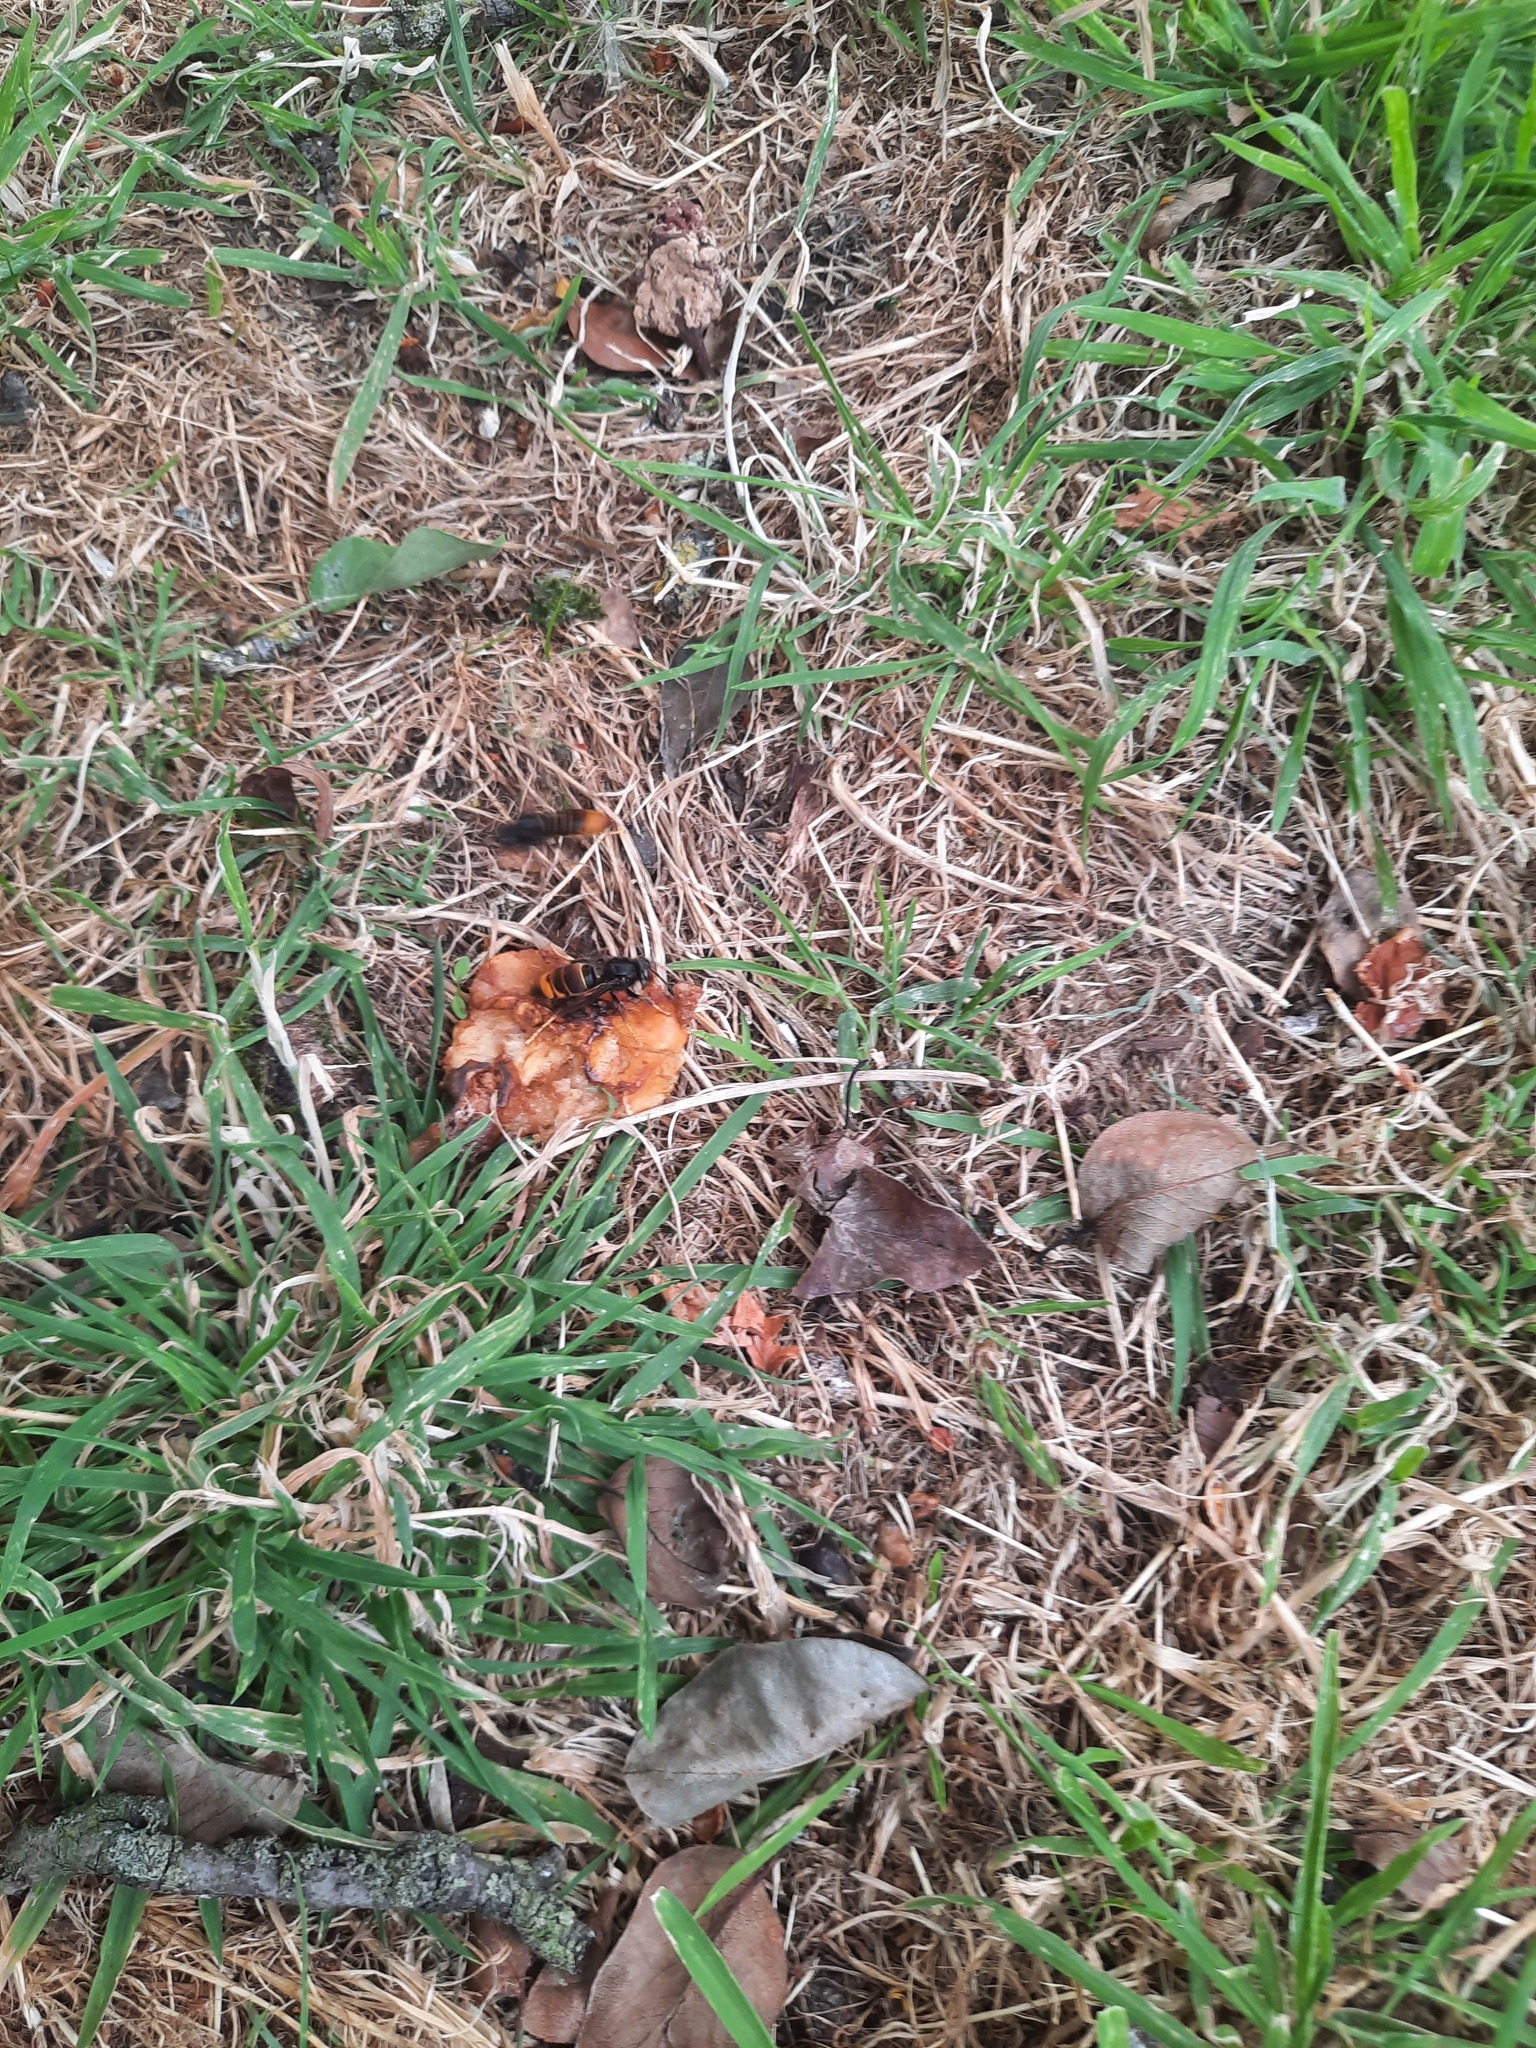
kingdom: Animalia
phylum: Arthropoda
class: Insecta
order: Hymenoptera
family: Vespidae
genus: Vespa
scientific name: Vespa velutina
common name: Asian hornet
